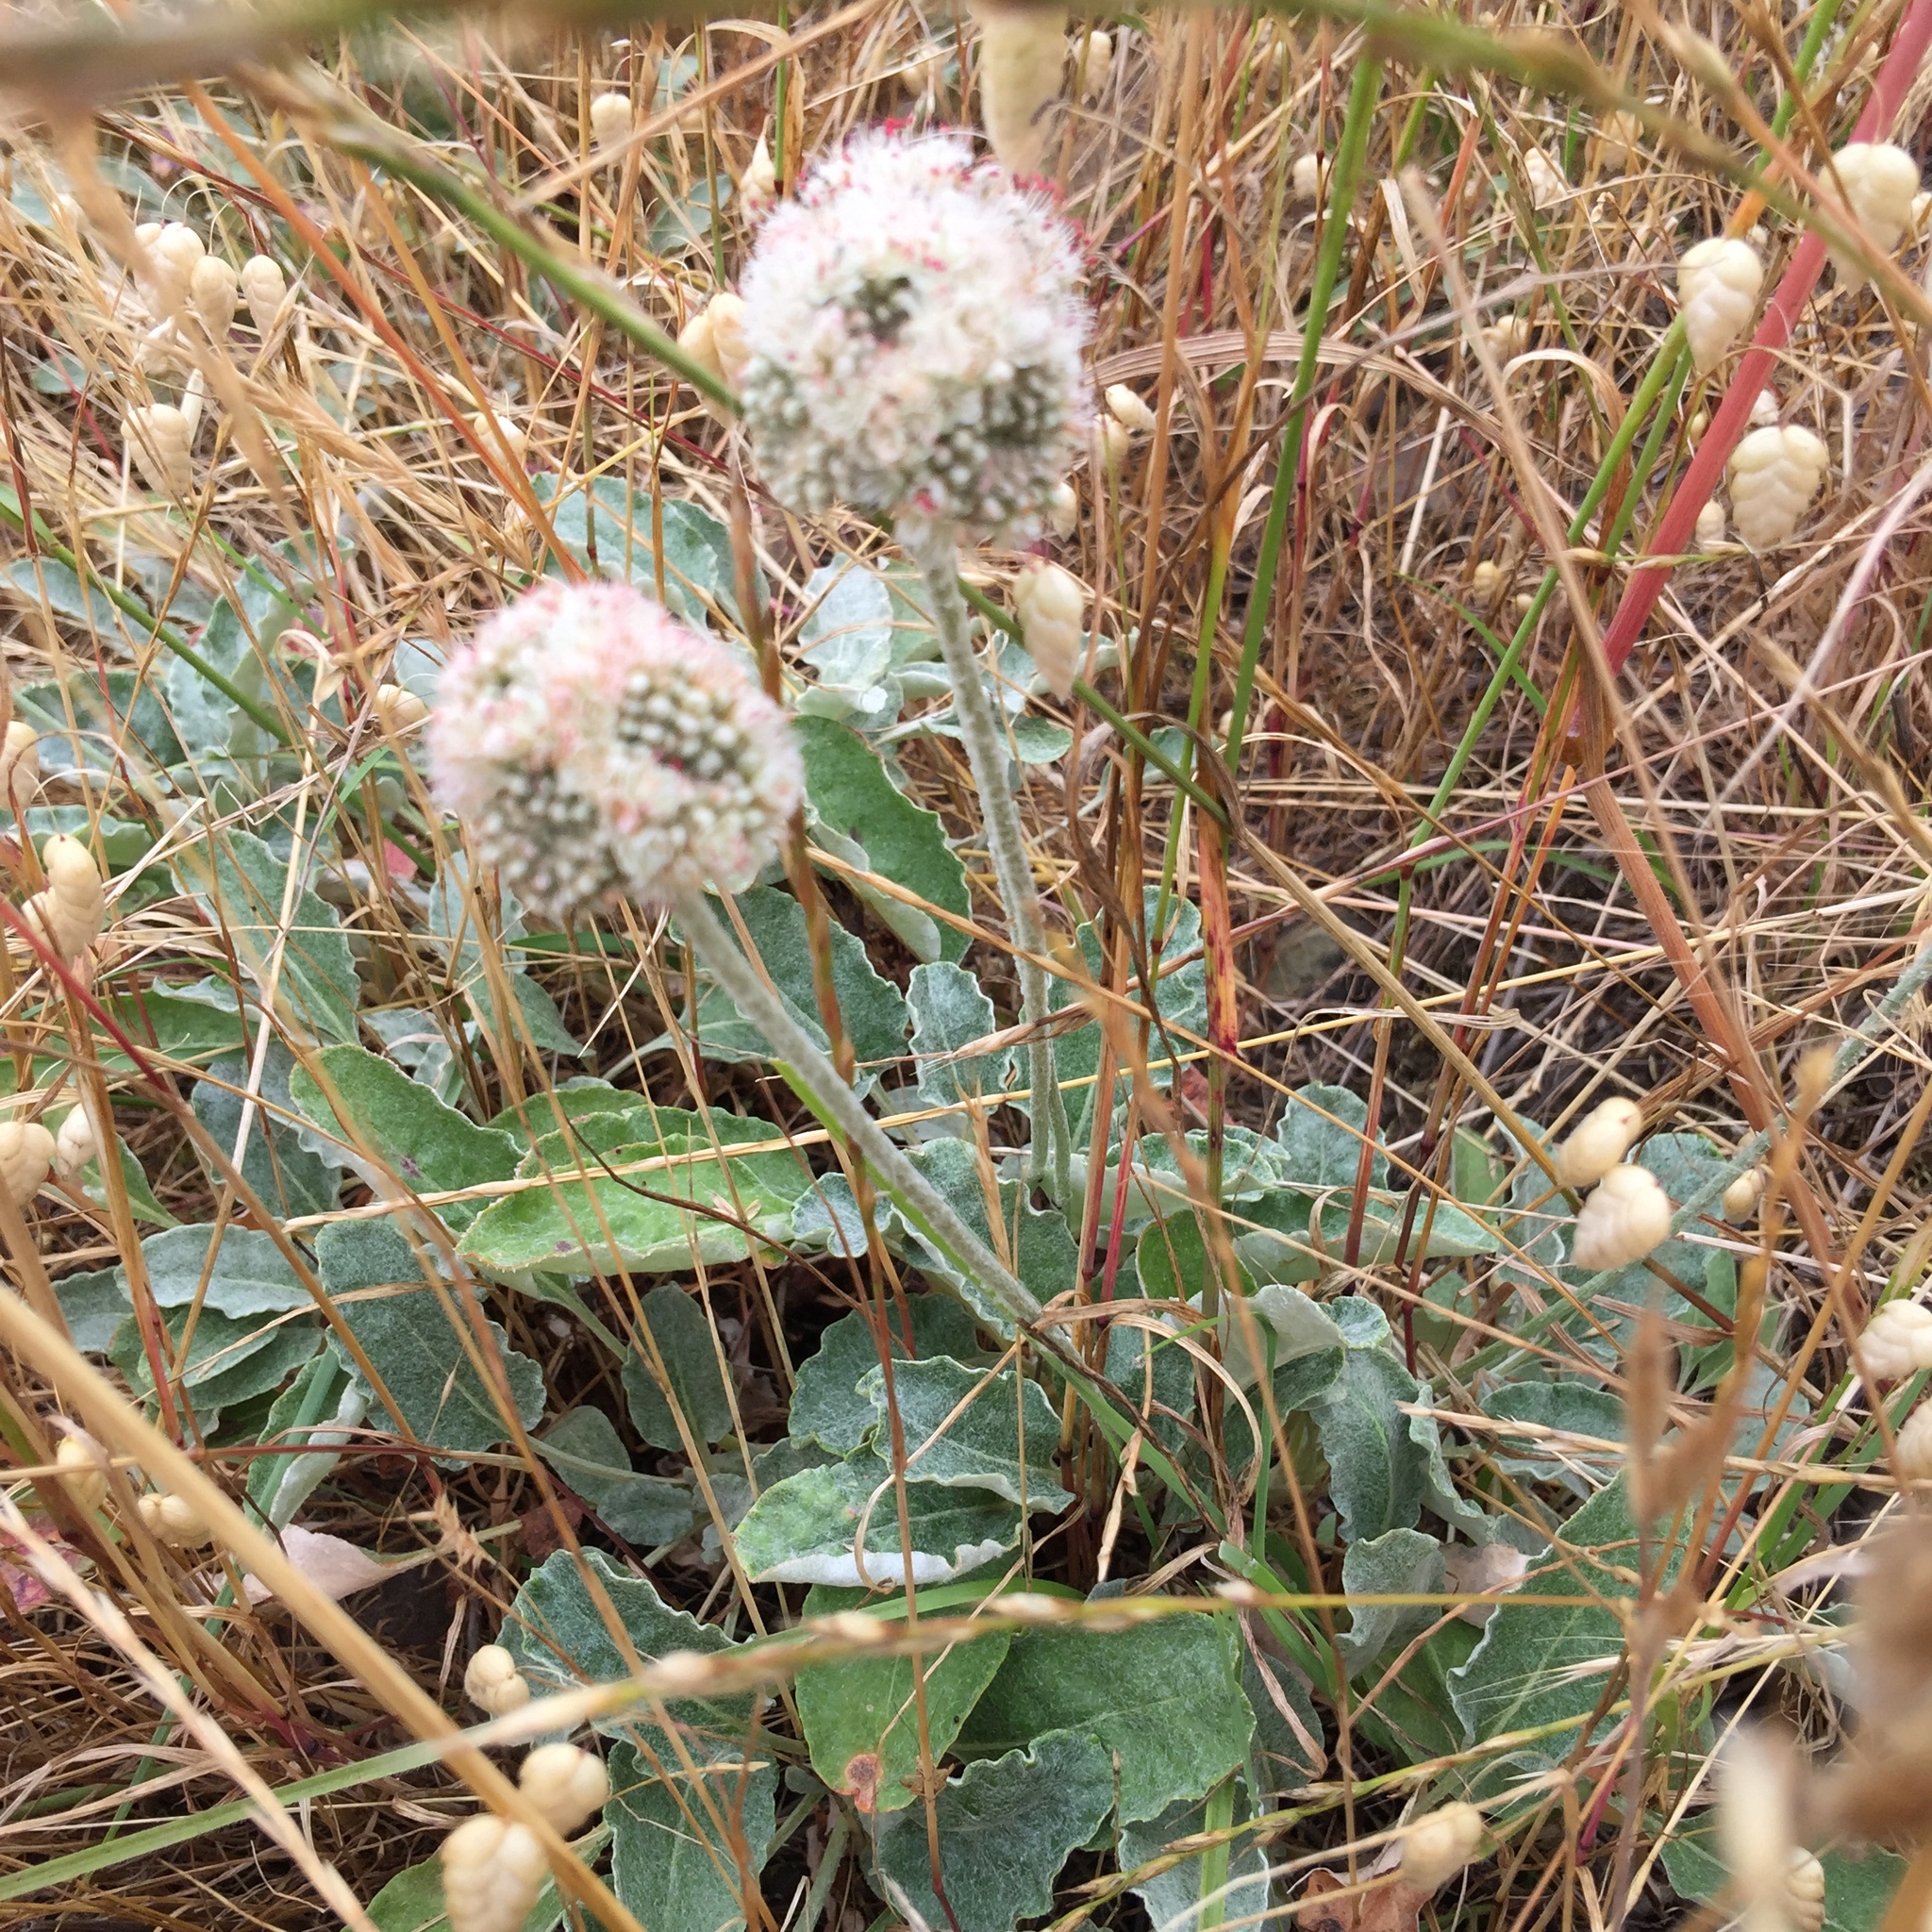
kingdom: Plantae
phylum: Tracheophyta
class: Magnoliopsida
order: Caryophyllales
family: Polygonaceae
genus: Eriogonum
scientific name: Eriogonum latifolium
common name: Seaside wild buckwheat
